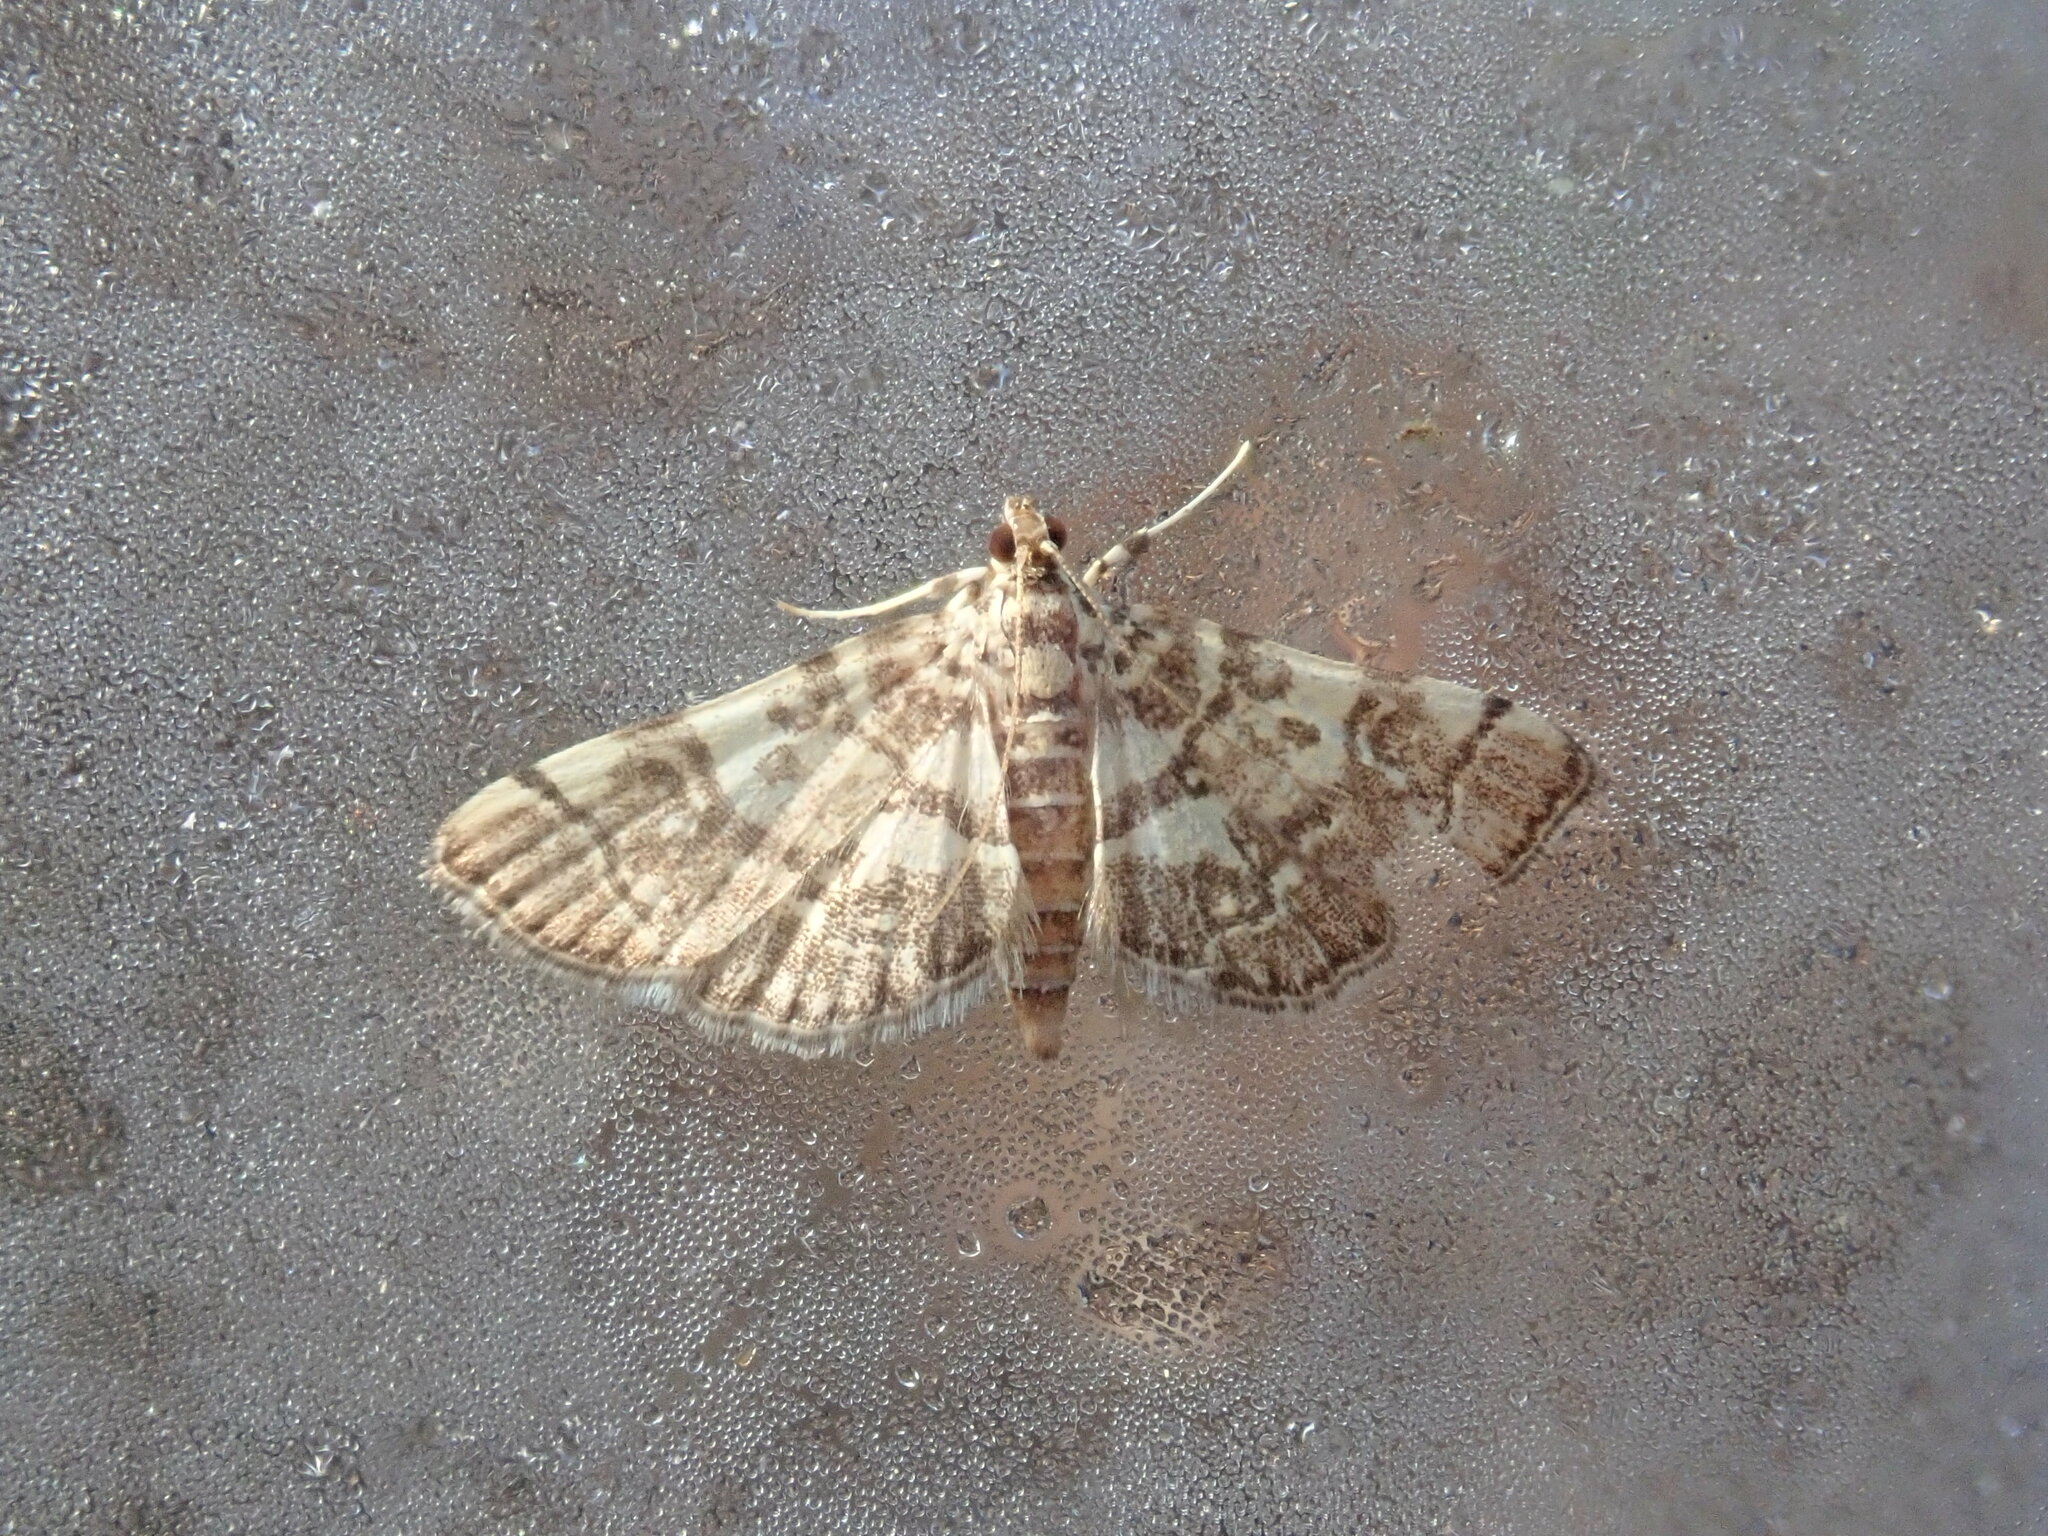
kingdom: Animalia
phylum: Arthropoda
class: Insecta
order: Lepidoptera
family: Crambidae
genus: Apogeshna
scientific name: Apogeshna stenialis
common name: Checkered apogeshna moth
